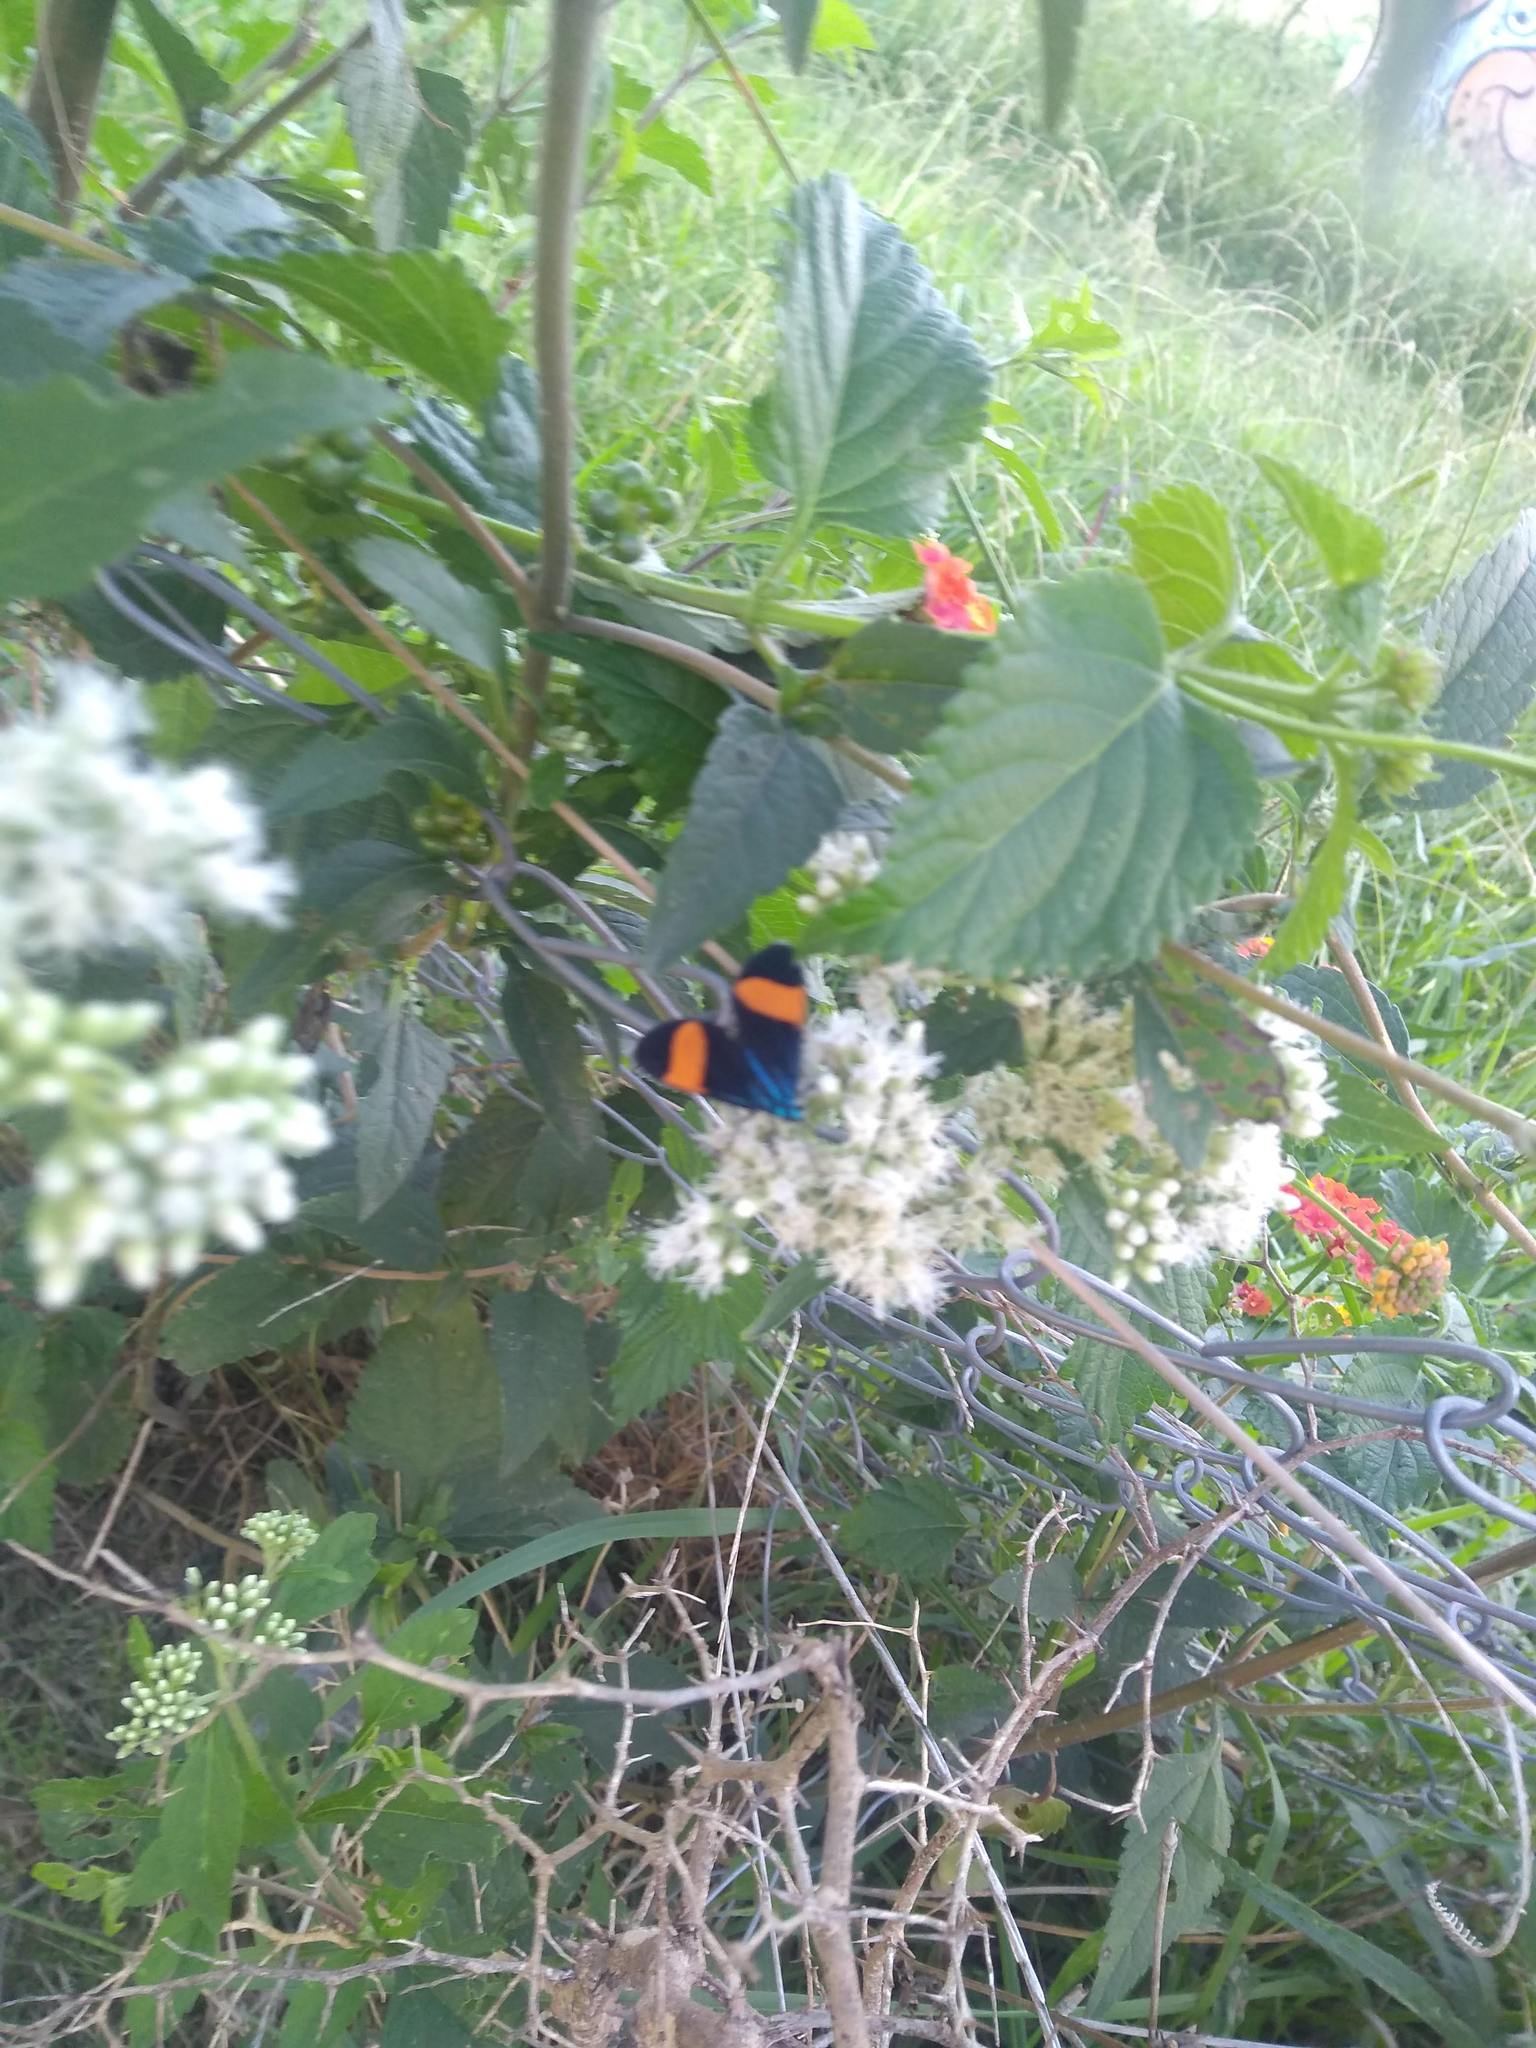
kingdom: Animalia
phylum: Arthropoda
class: Insecta
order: Lepidoptera
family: Erebidae
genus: Cyanopepla
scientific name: Cyanopepla similis
